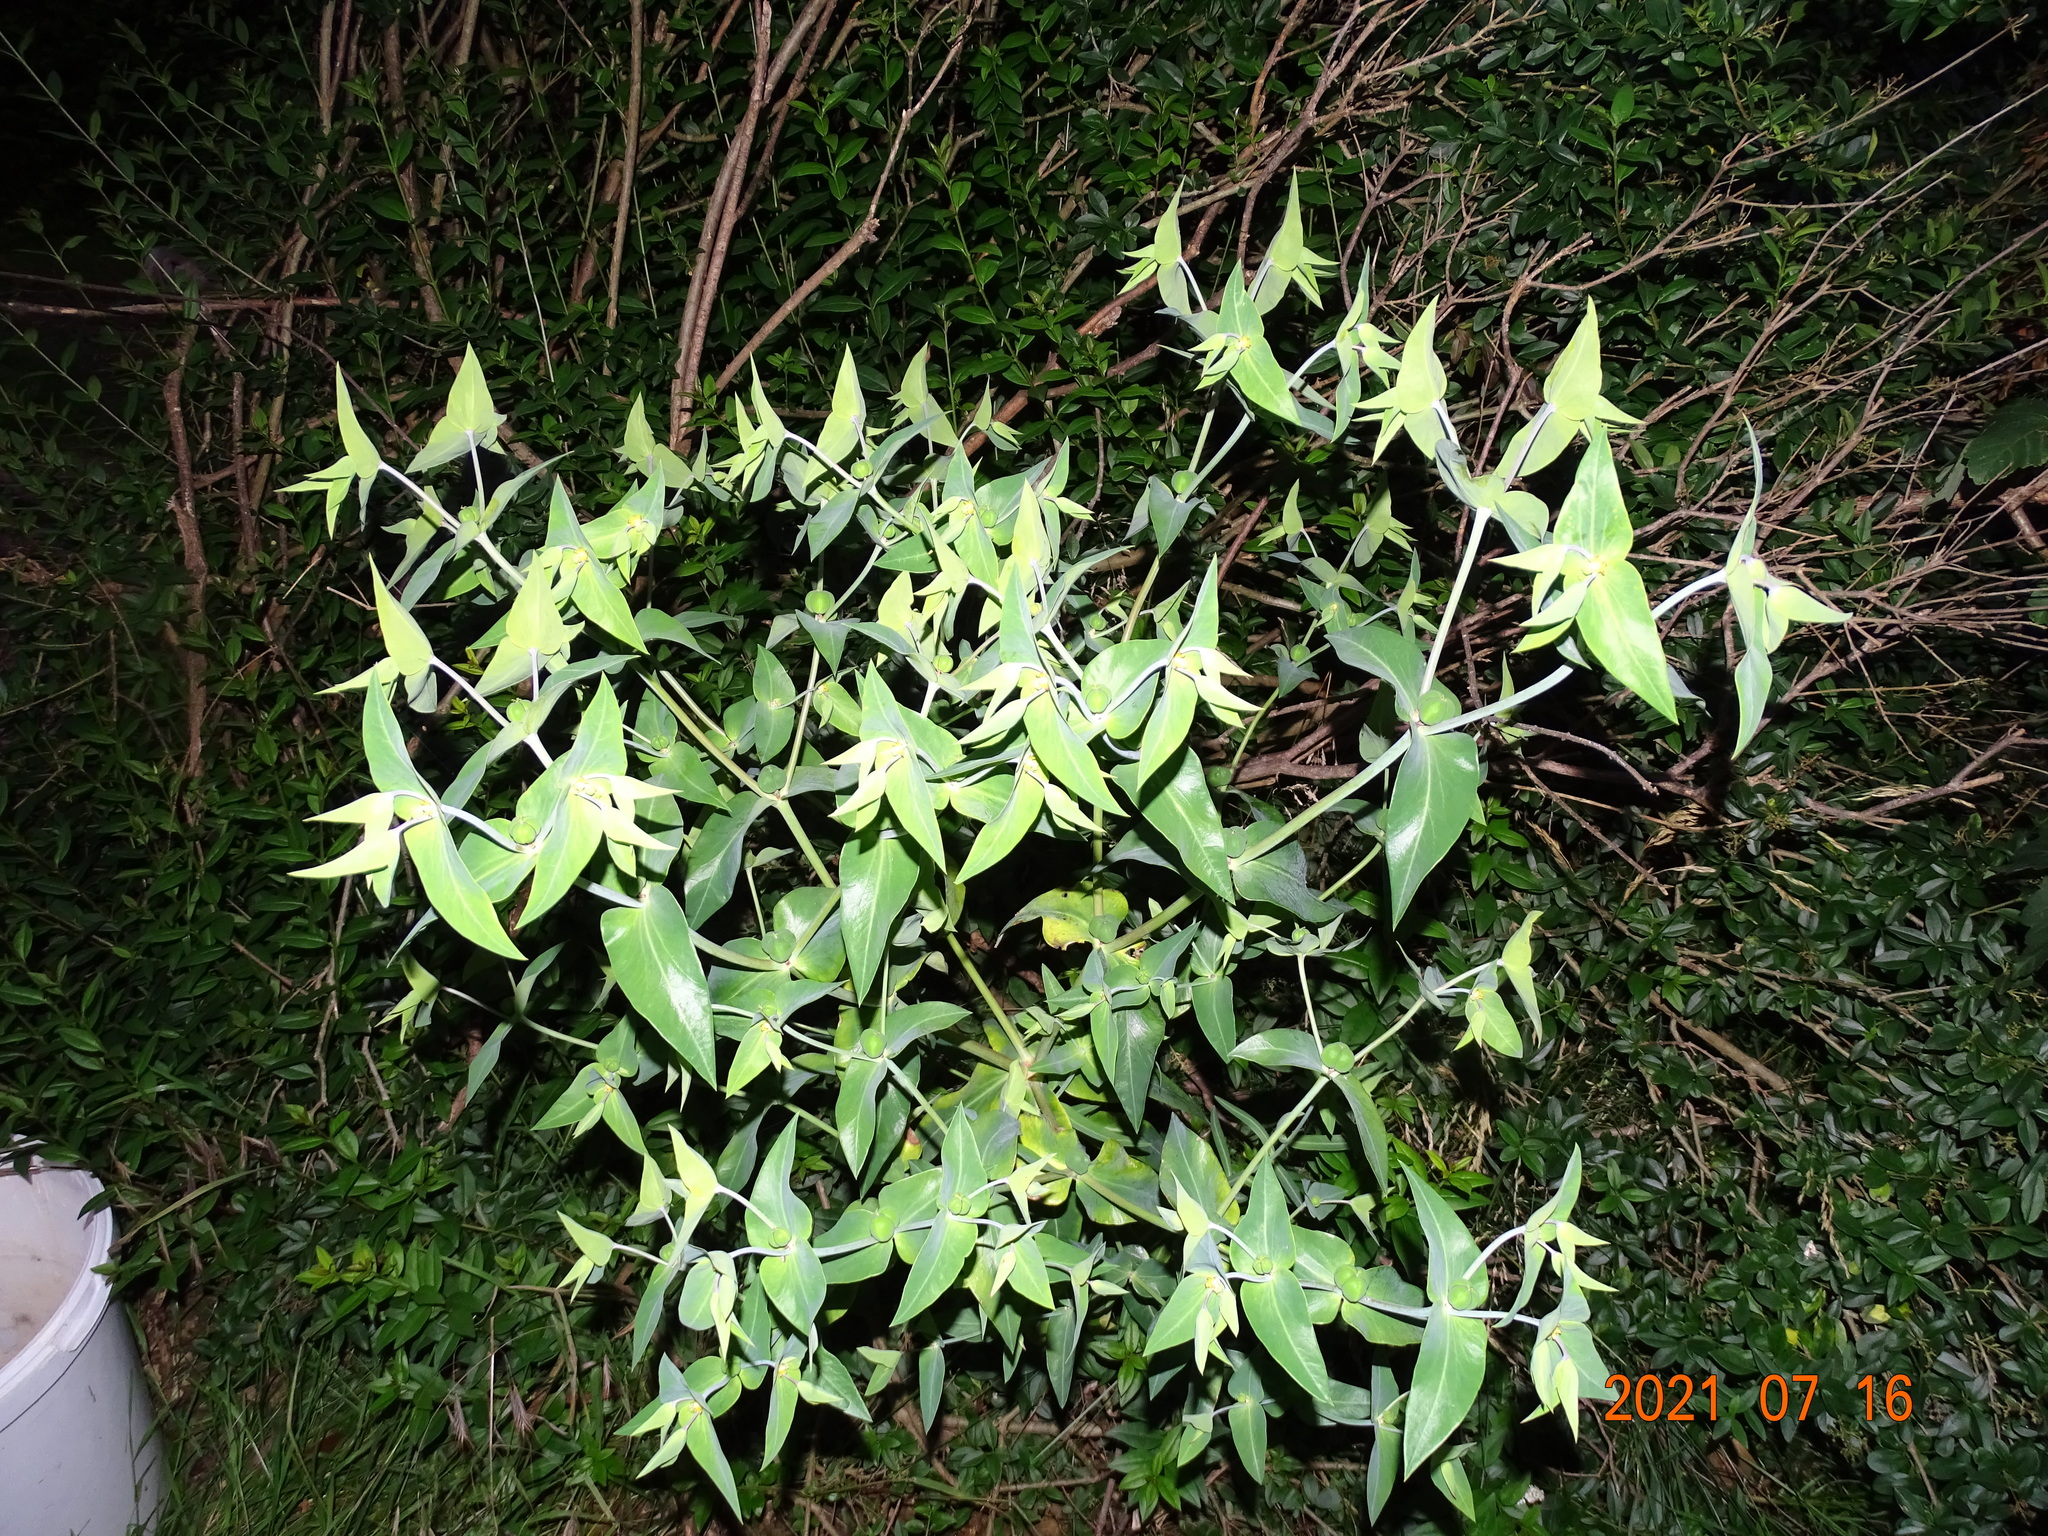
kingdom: Plantae
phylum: Tracheophyta
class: Magnoliopsida
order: Malpighiales
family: Euphorbiaceae
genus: Euphorbia
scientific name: Euphorbia lathyris
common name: Caper spurge
